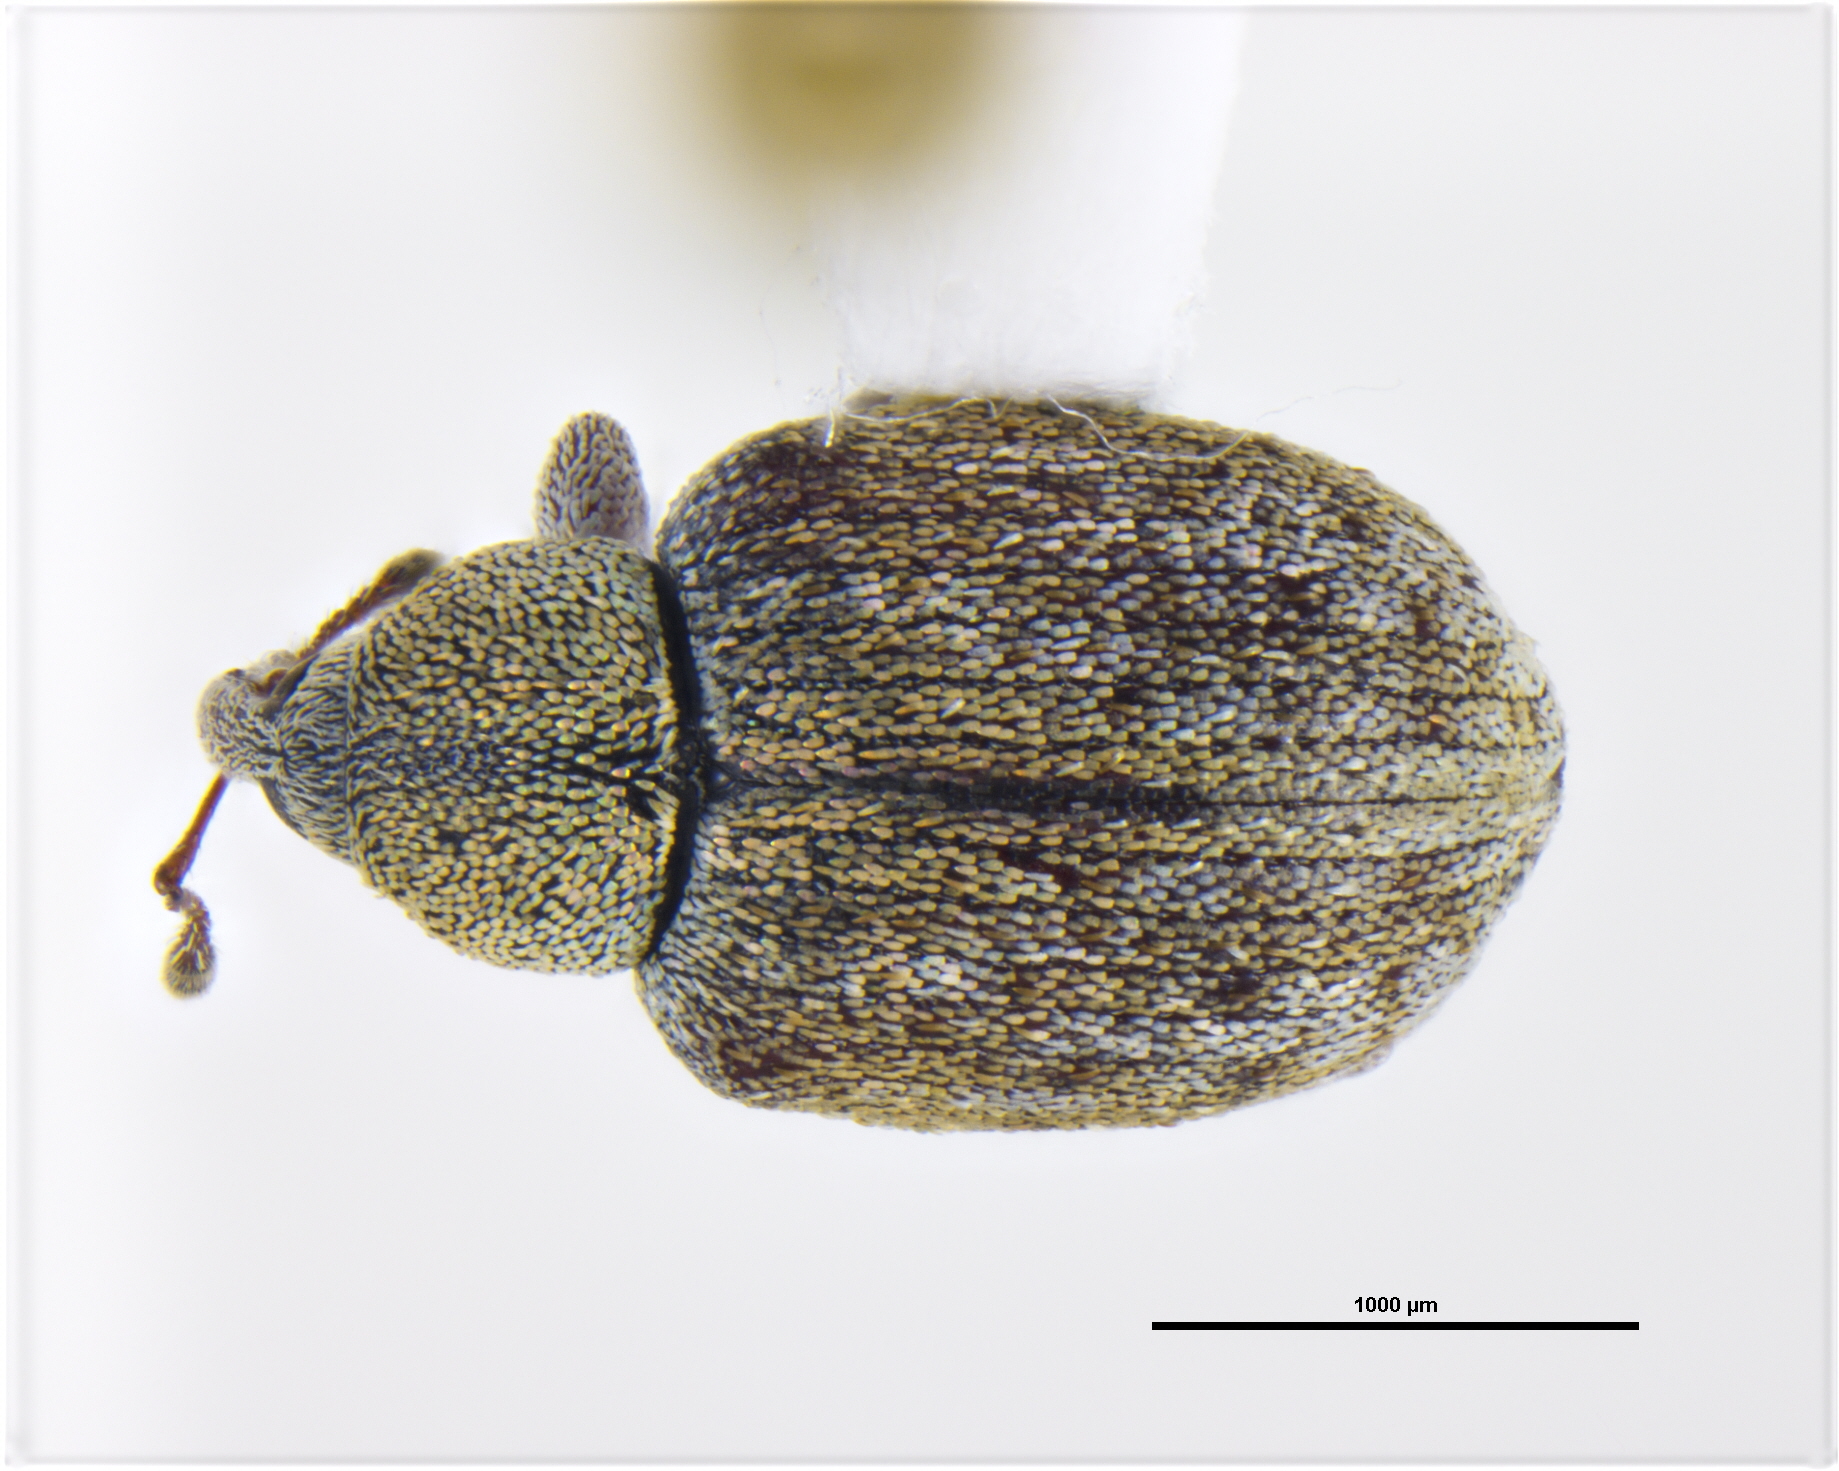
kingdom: Animalia
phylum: Arthropoda
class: Insecta
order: Coleoptera
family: Curculionidae
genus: Nedyleda
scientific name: Nedyleda obsti
